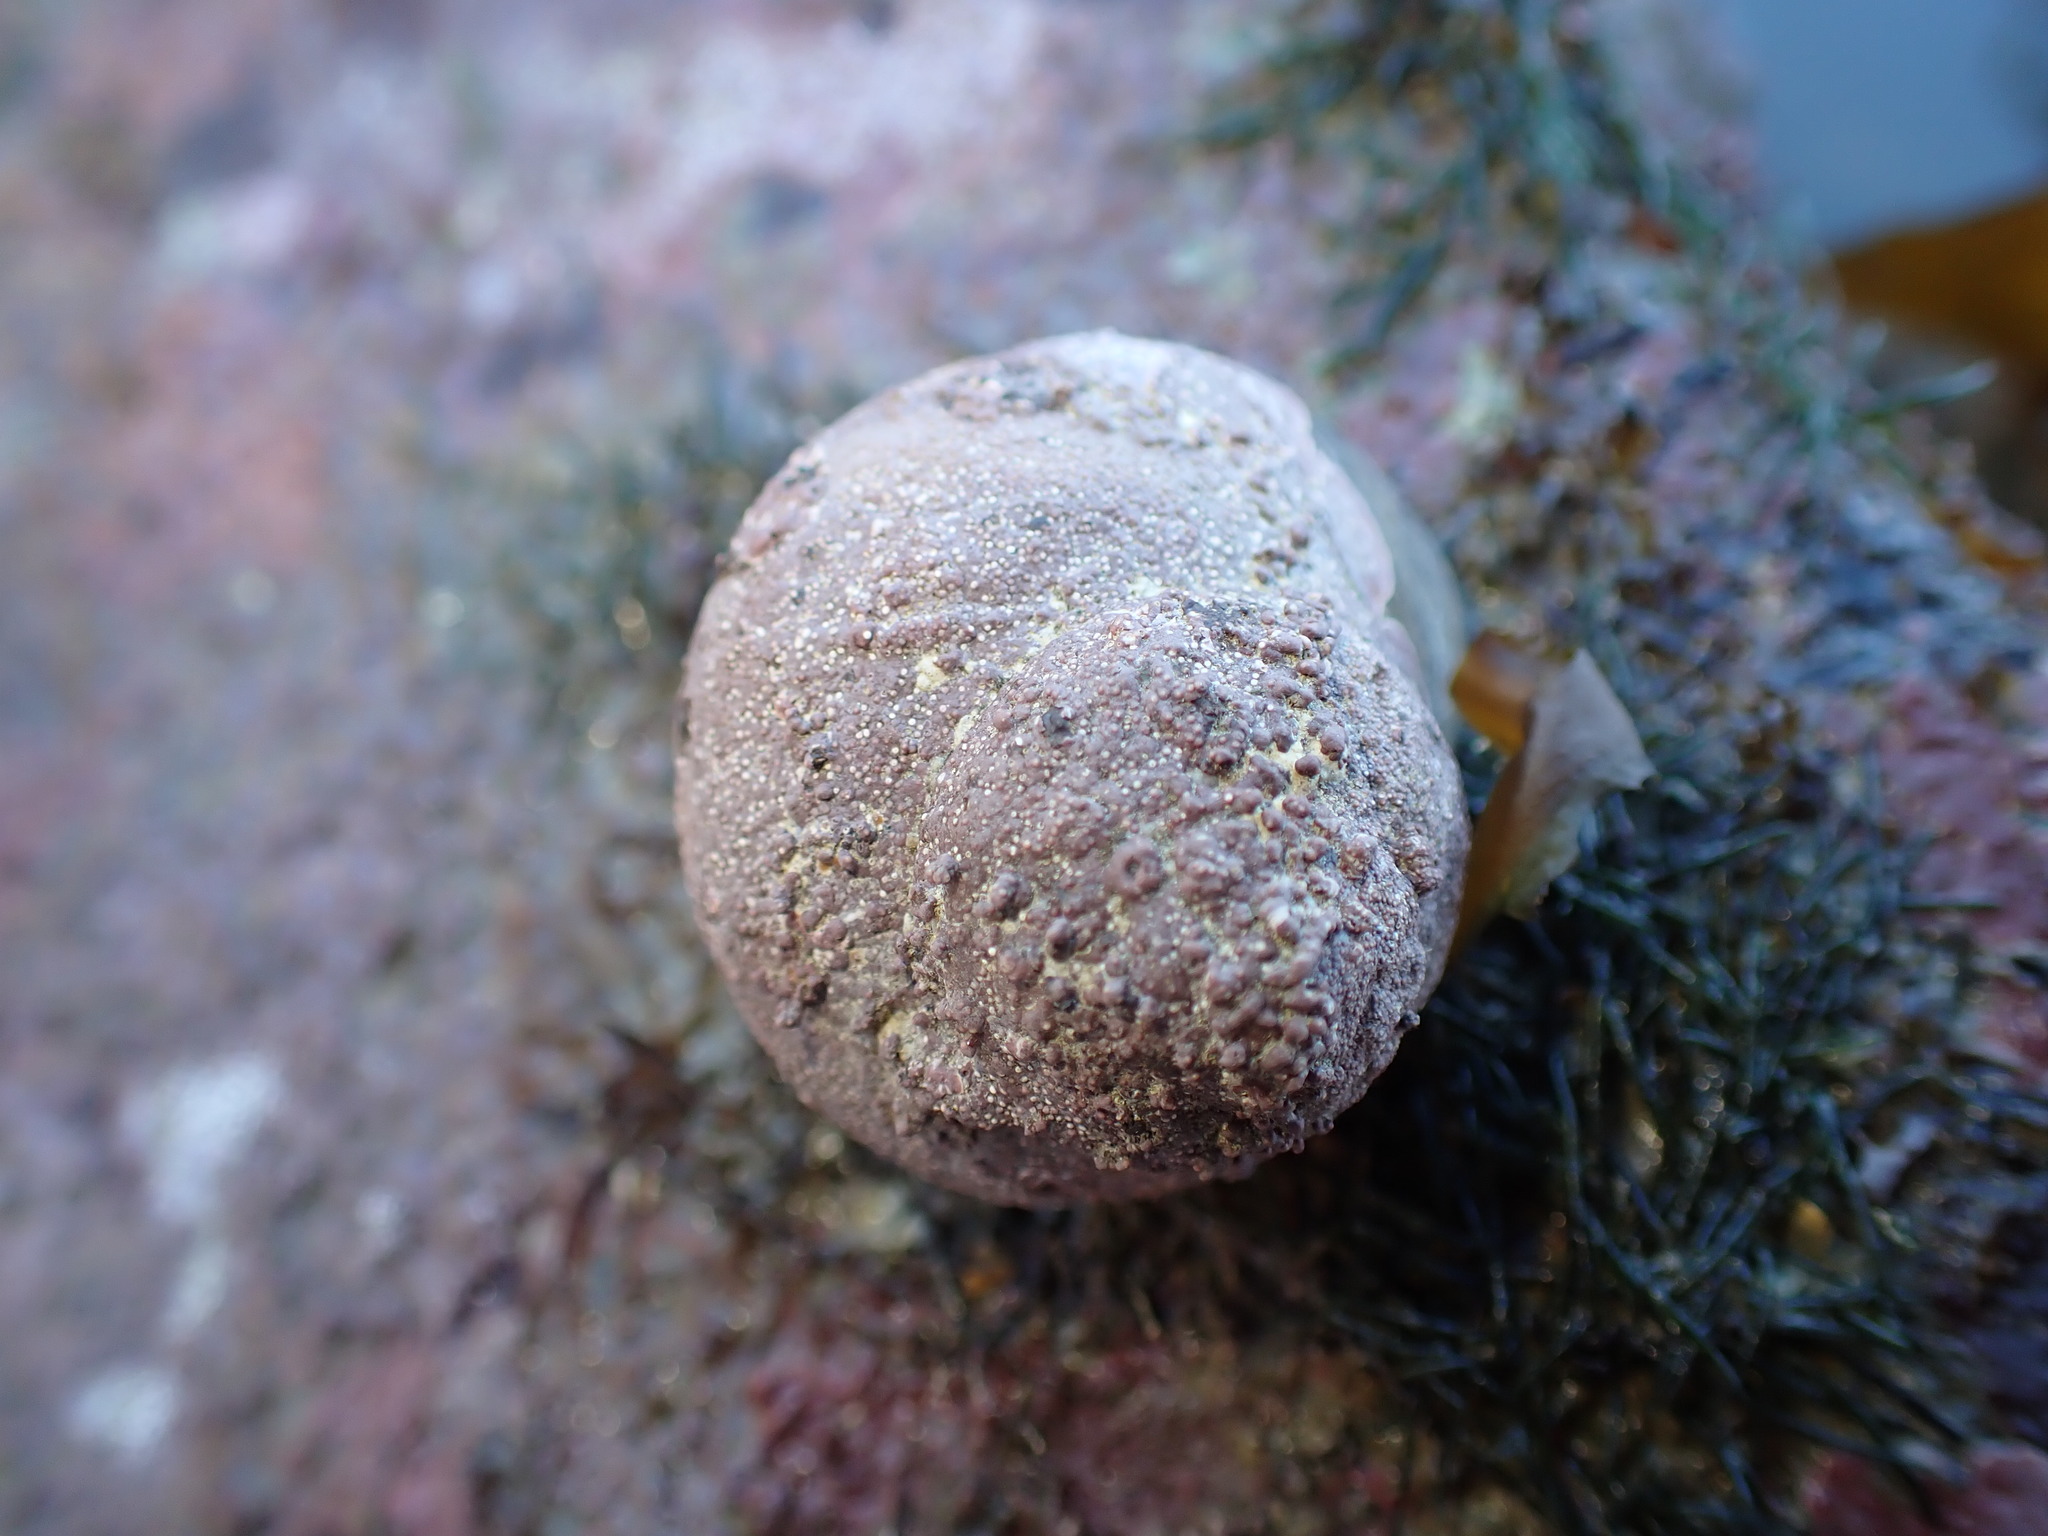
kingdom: Animalia
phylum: Mollusca
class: Gastropoda
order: Trochida
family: Turbinidae
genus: Lunella
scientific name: Lunella smaragda
